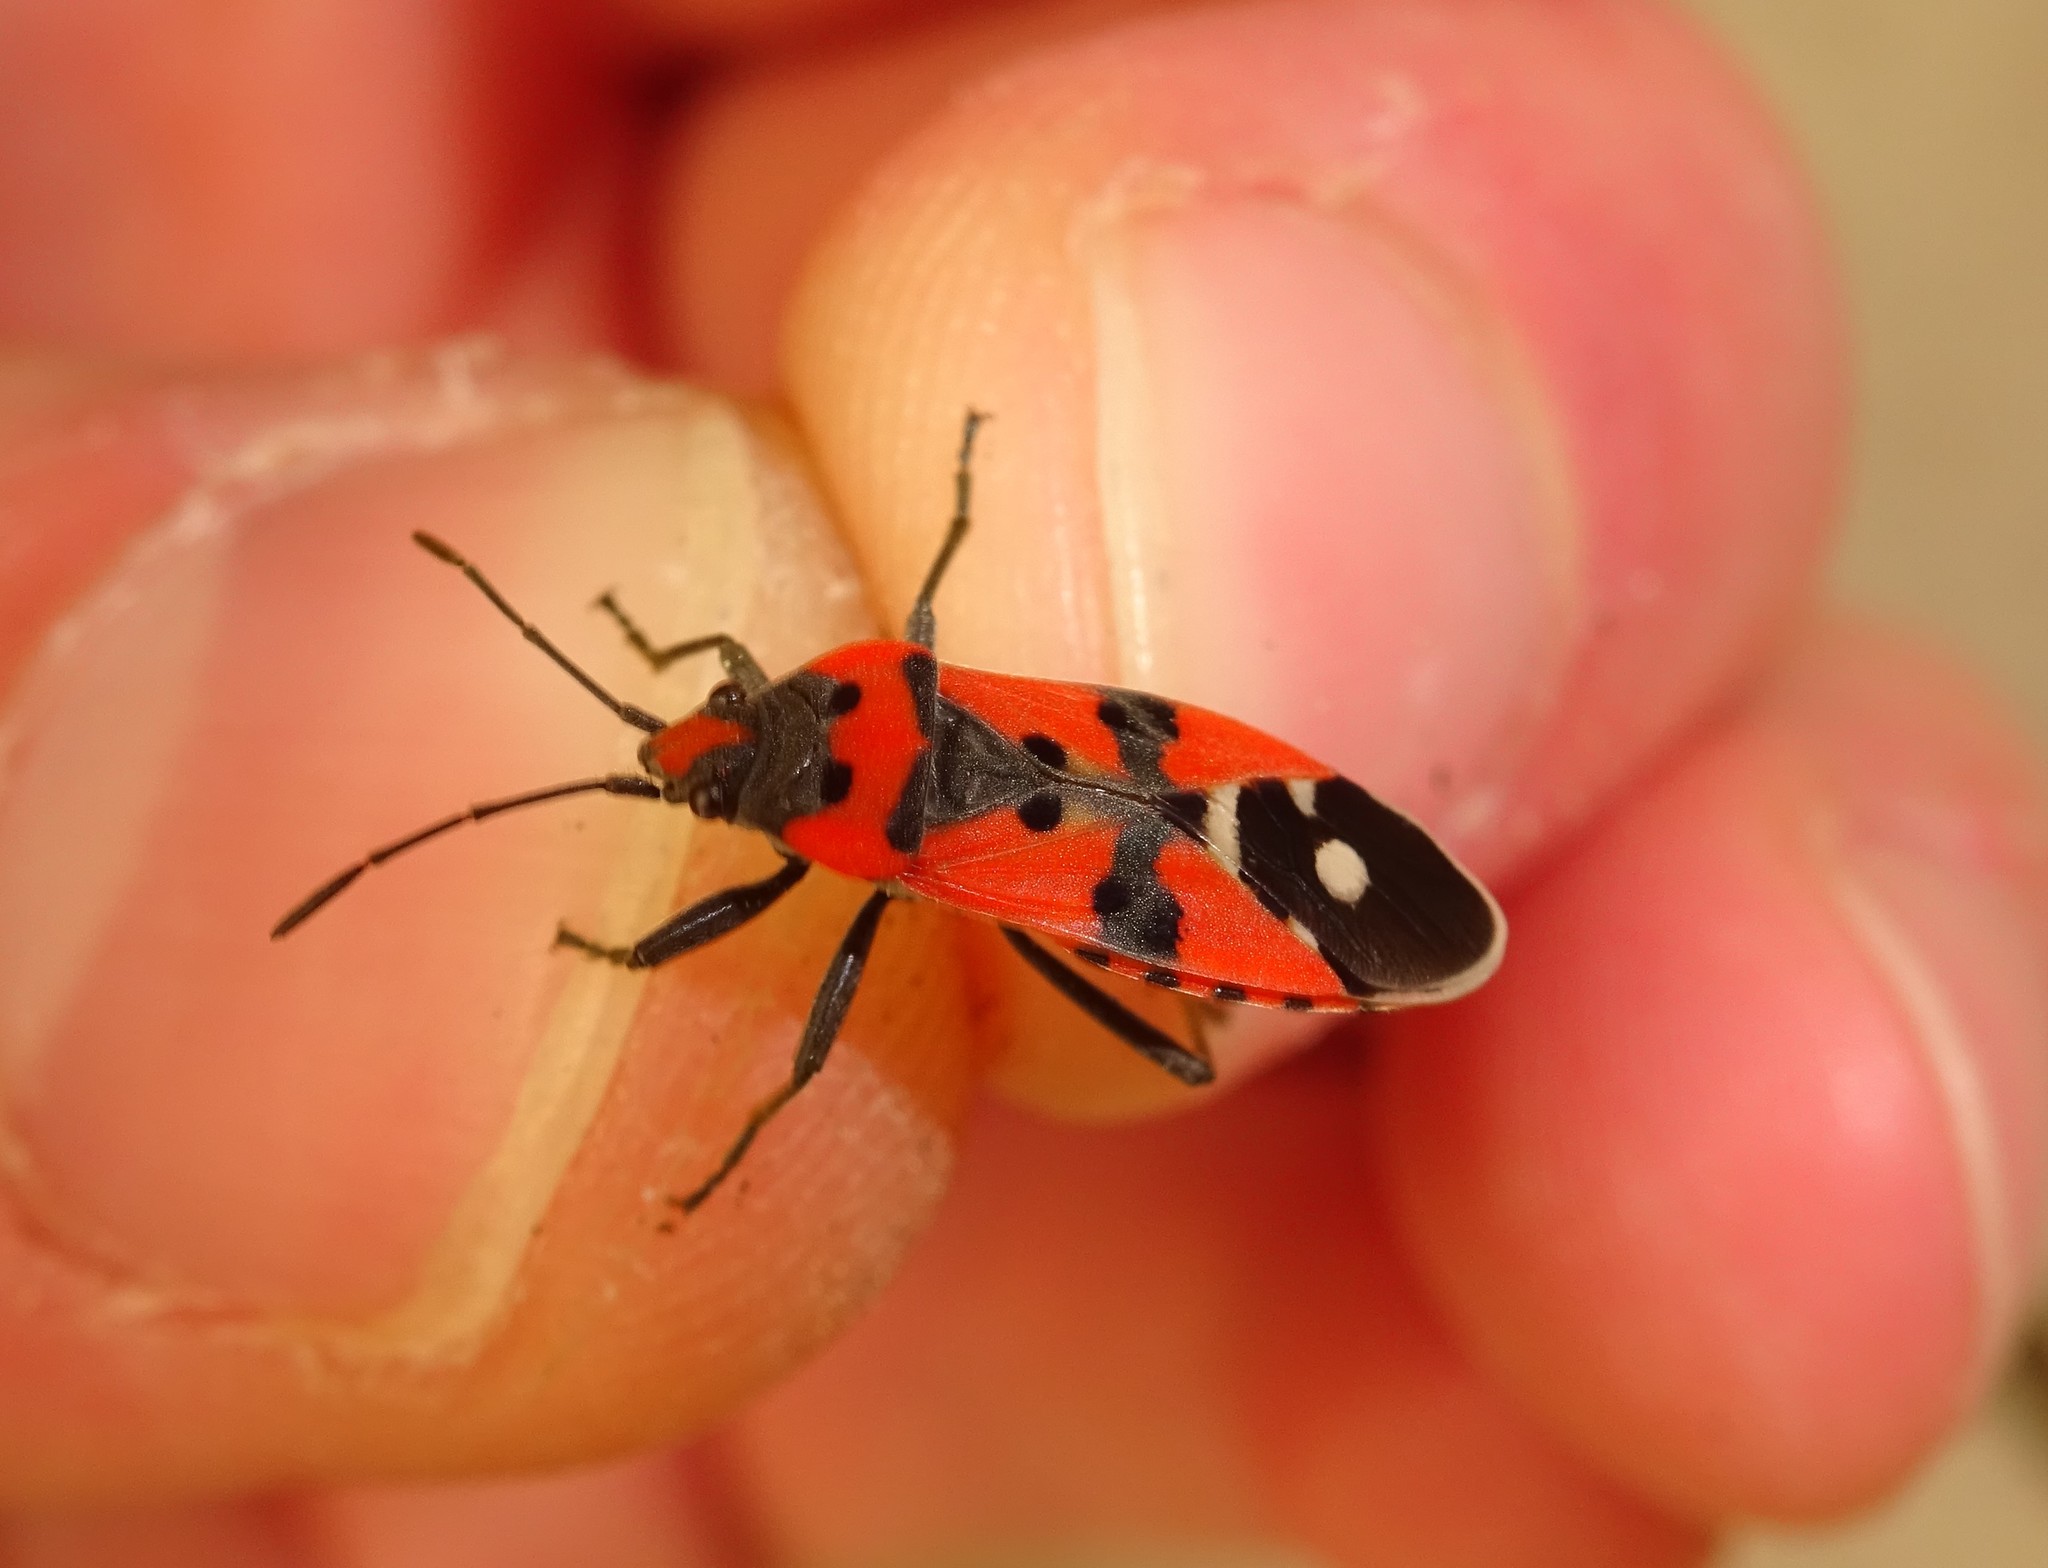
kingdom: Animalia
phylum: Arthropoda
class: Insecta
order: Hemiptera
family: Lygaeidae
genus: Lygaeus
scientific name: Lygaeus equestris
